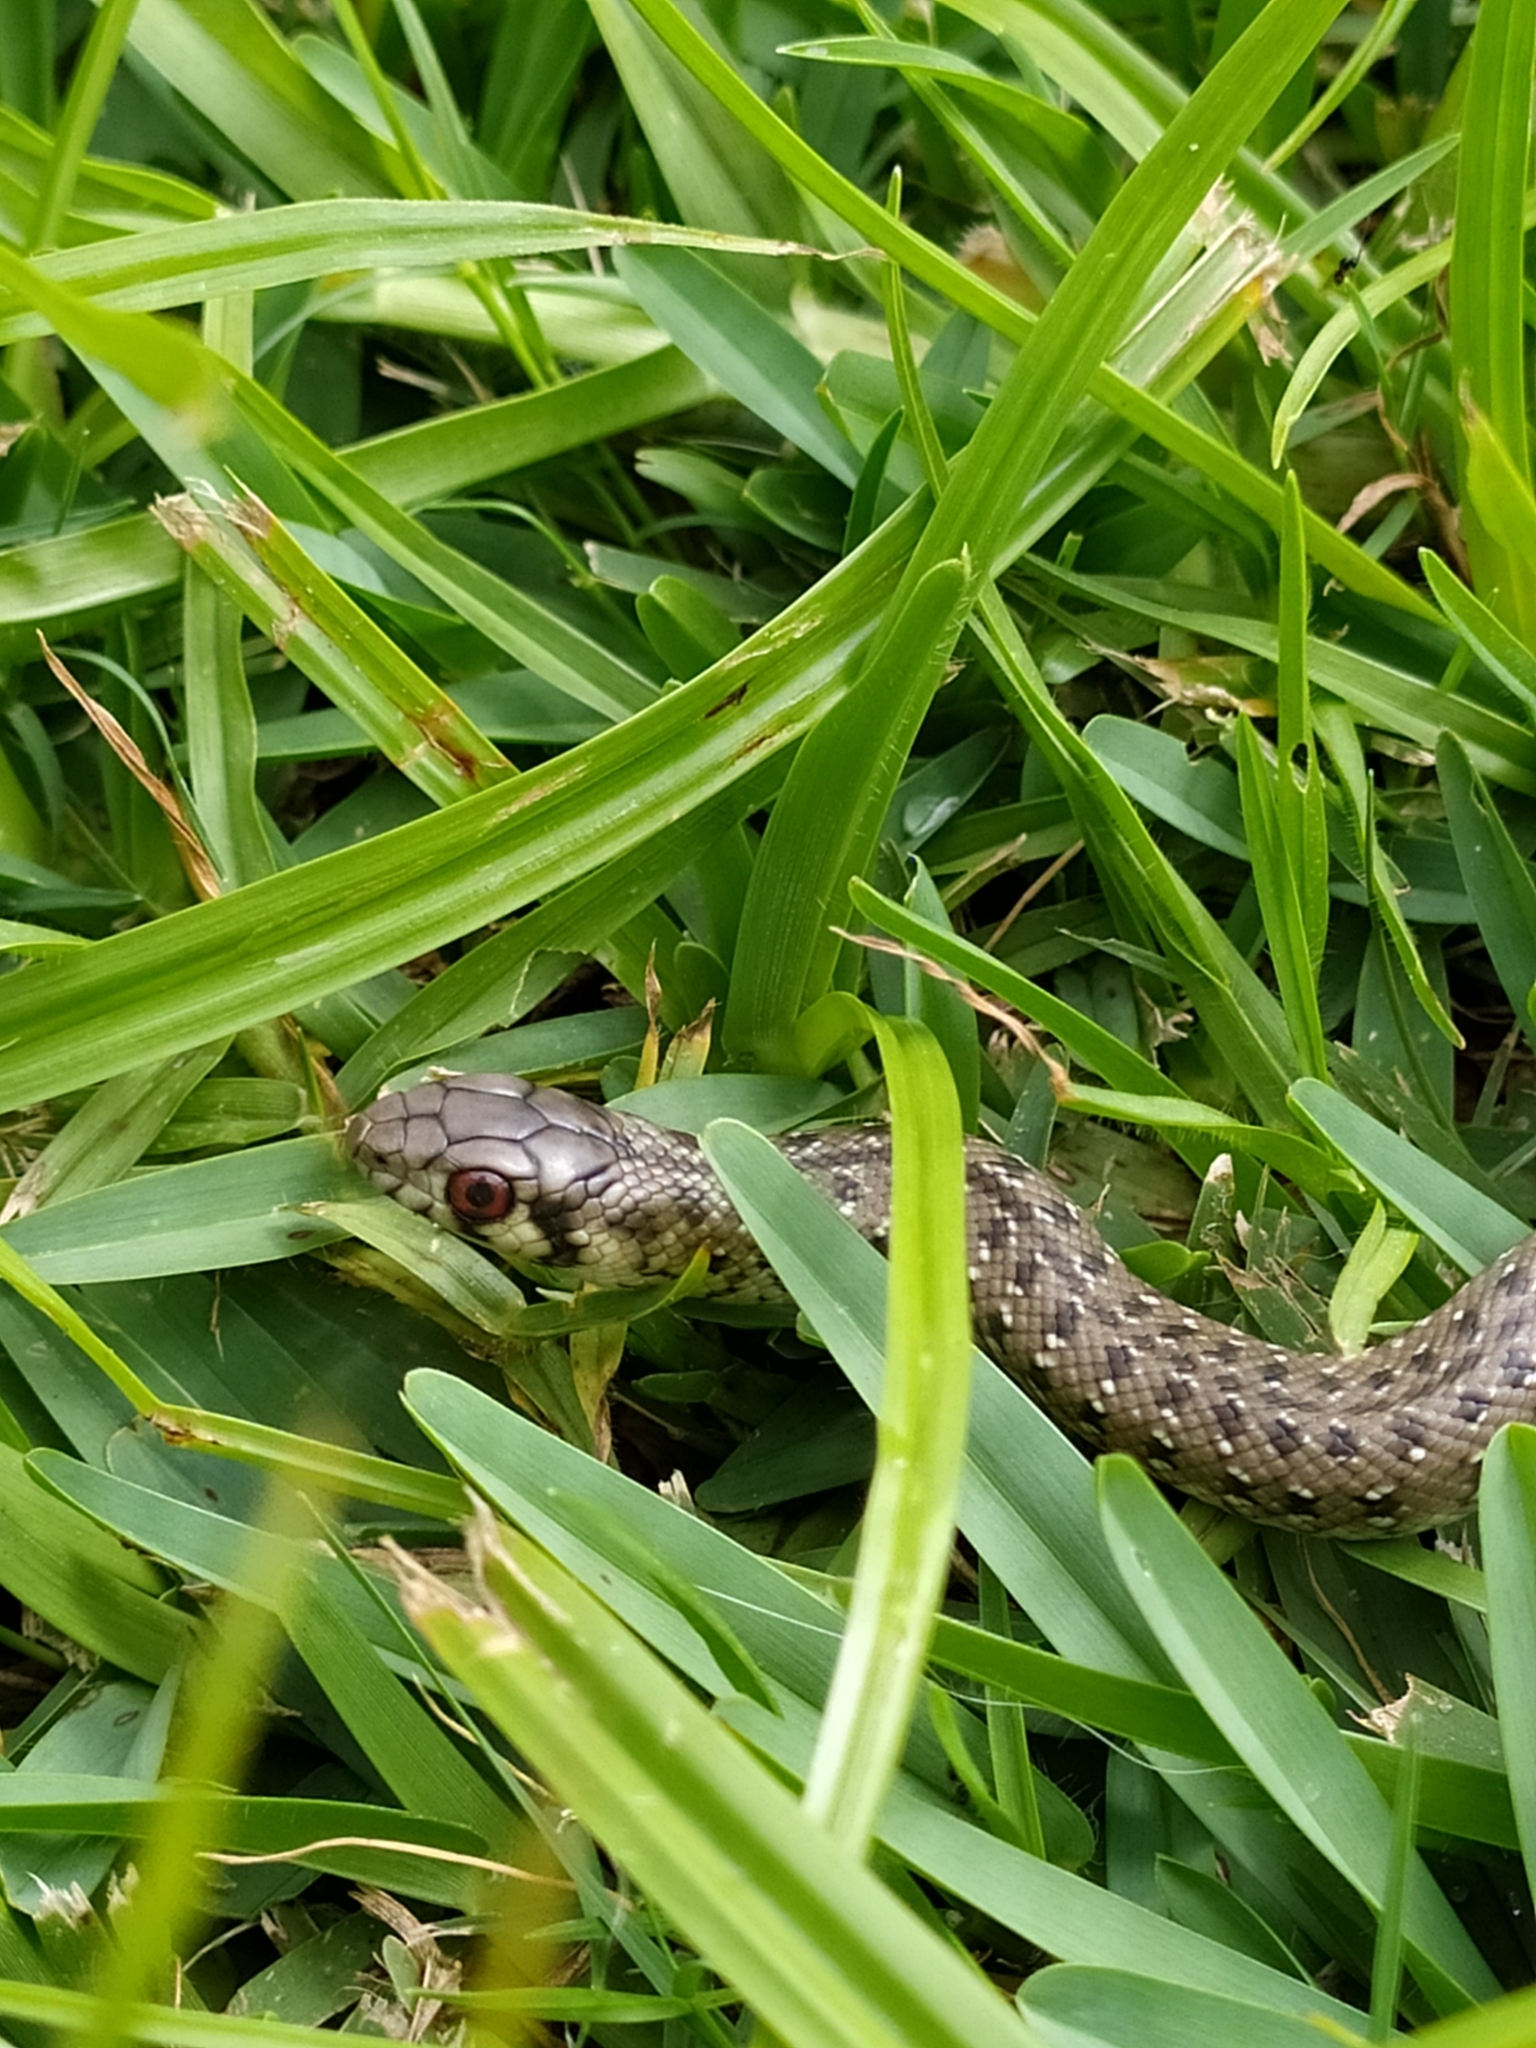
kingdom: Animalia
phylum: Chordata
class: Squamata
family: Pseudaspididae
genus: Pseudaspis
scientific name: Pseudaspis cana
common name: Mole snake
